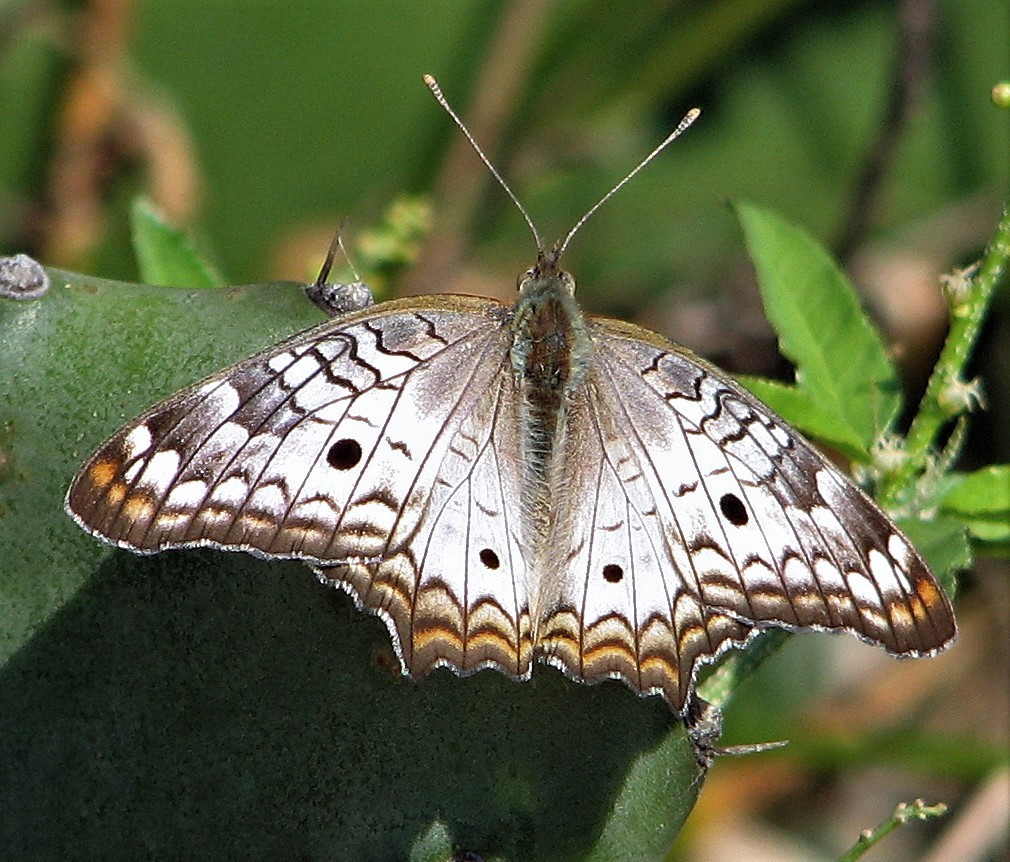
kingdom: Animalia
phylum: Arthropoda
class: Insecta
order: Lepidoptera
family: Nymphalidae
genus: Anartia
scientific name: Anartia jatrophae
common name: White peacock
